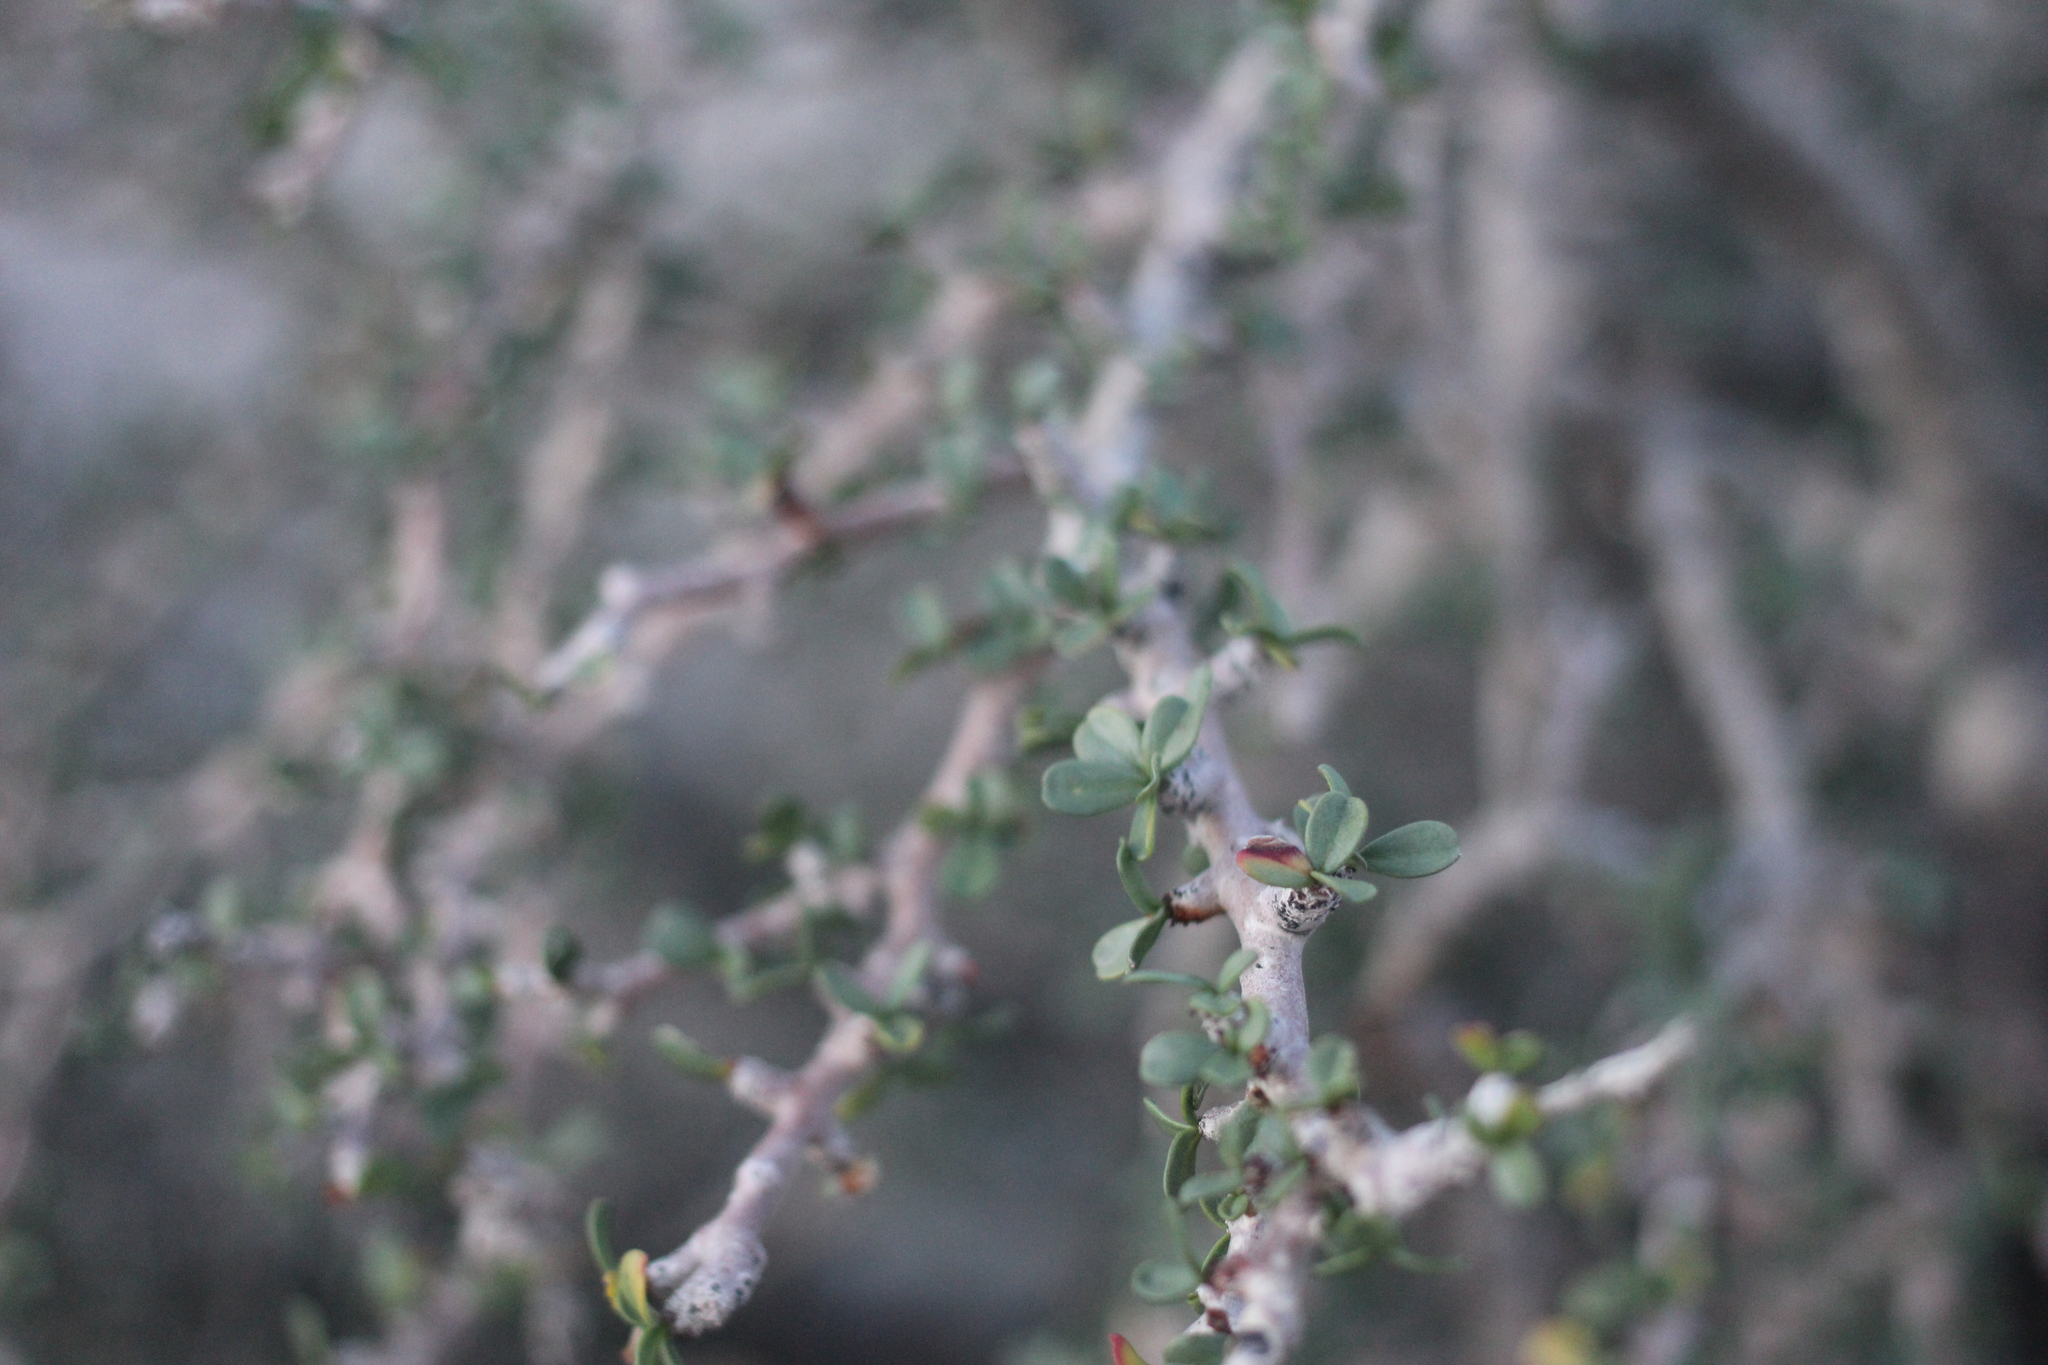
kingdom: Plantae
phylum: Tracheophyta
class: Magnoliopsida
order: Malpighiales
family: Euphorbiaceae
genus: Jatropha
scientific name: Jatropha cuneata
